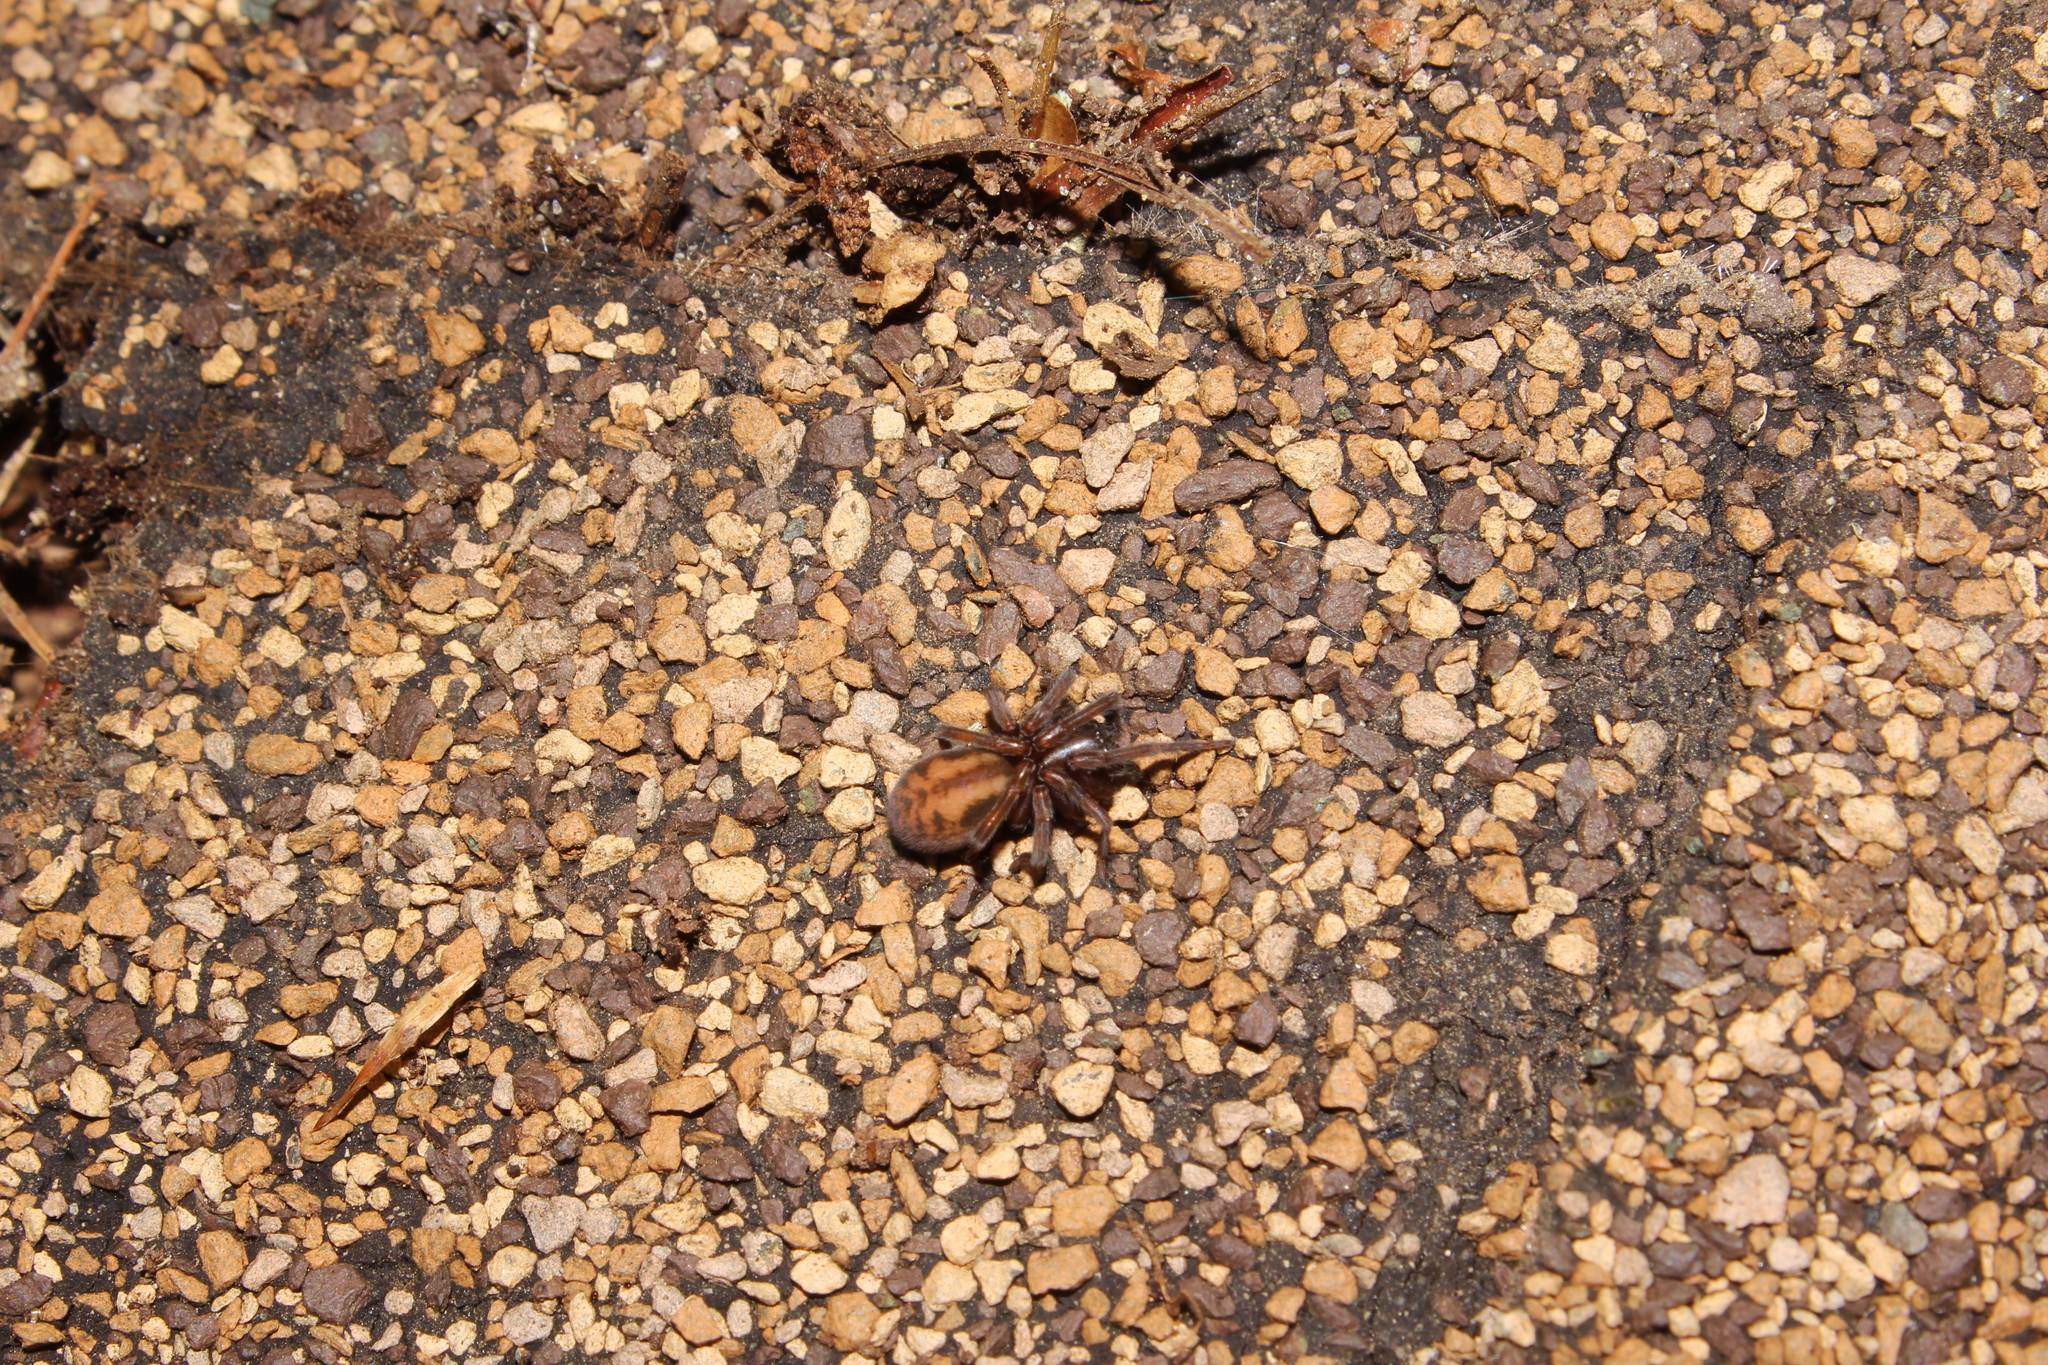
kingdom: Animalia
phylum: Arthropoda
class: Arachnida
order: Araneae
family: Amaurobiidae
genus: Callobius
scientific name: Callobius
